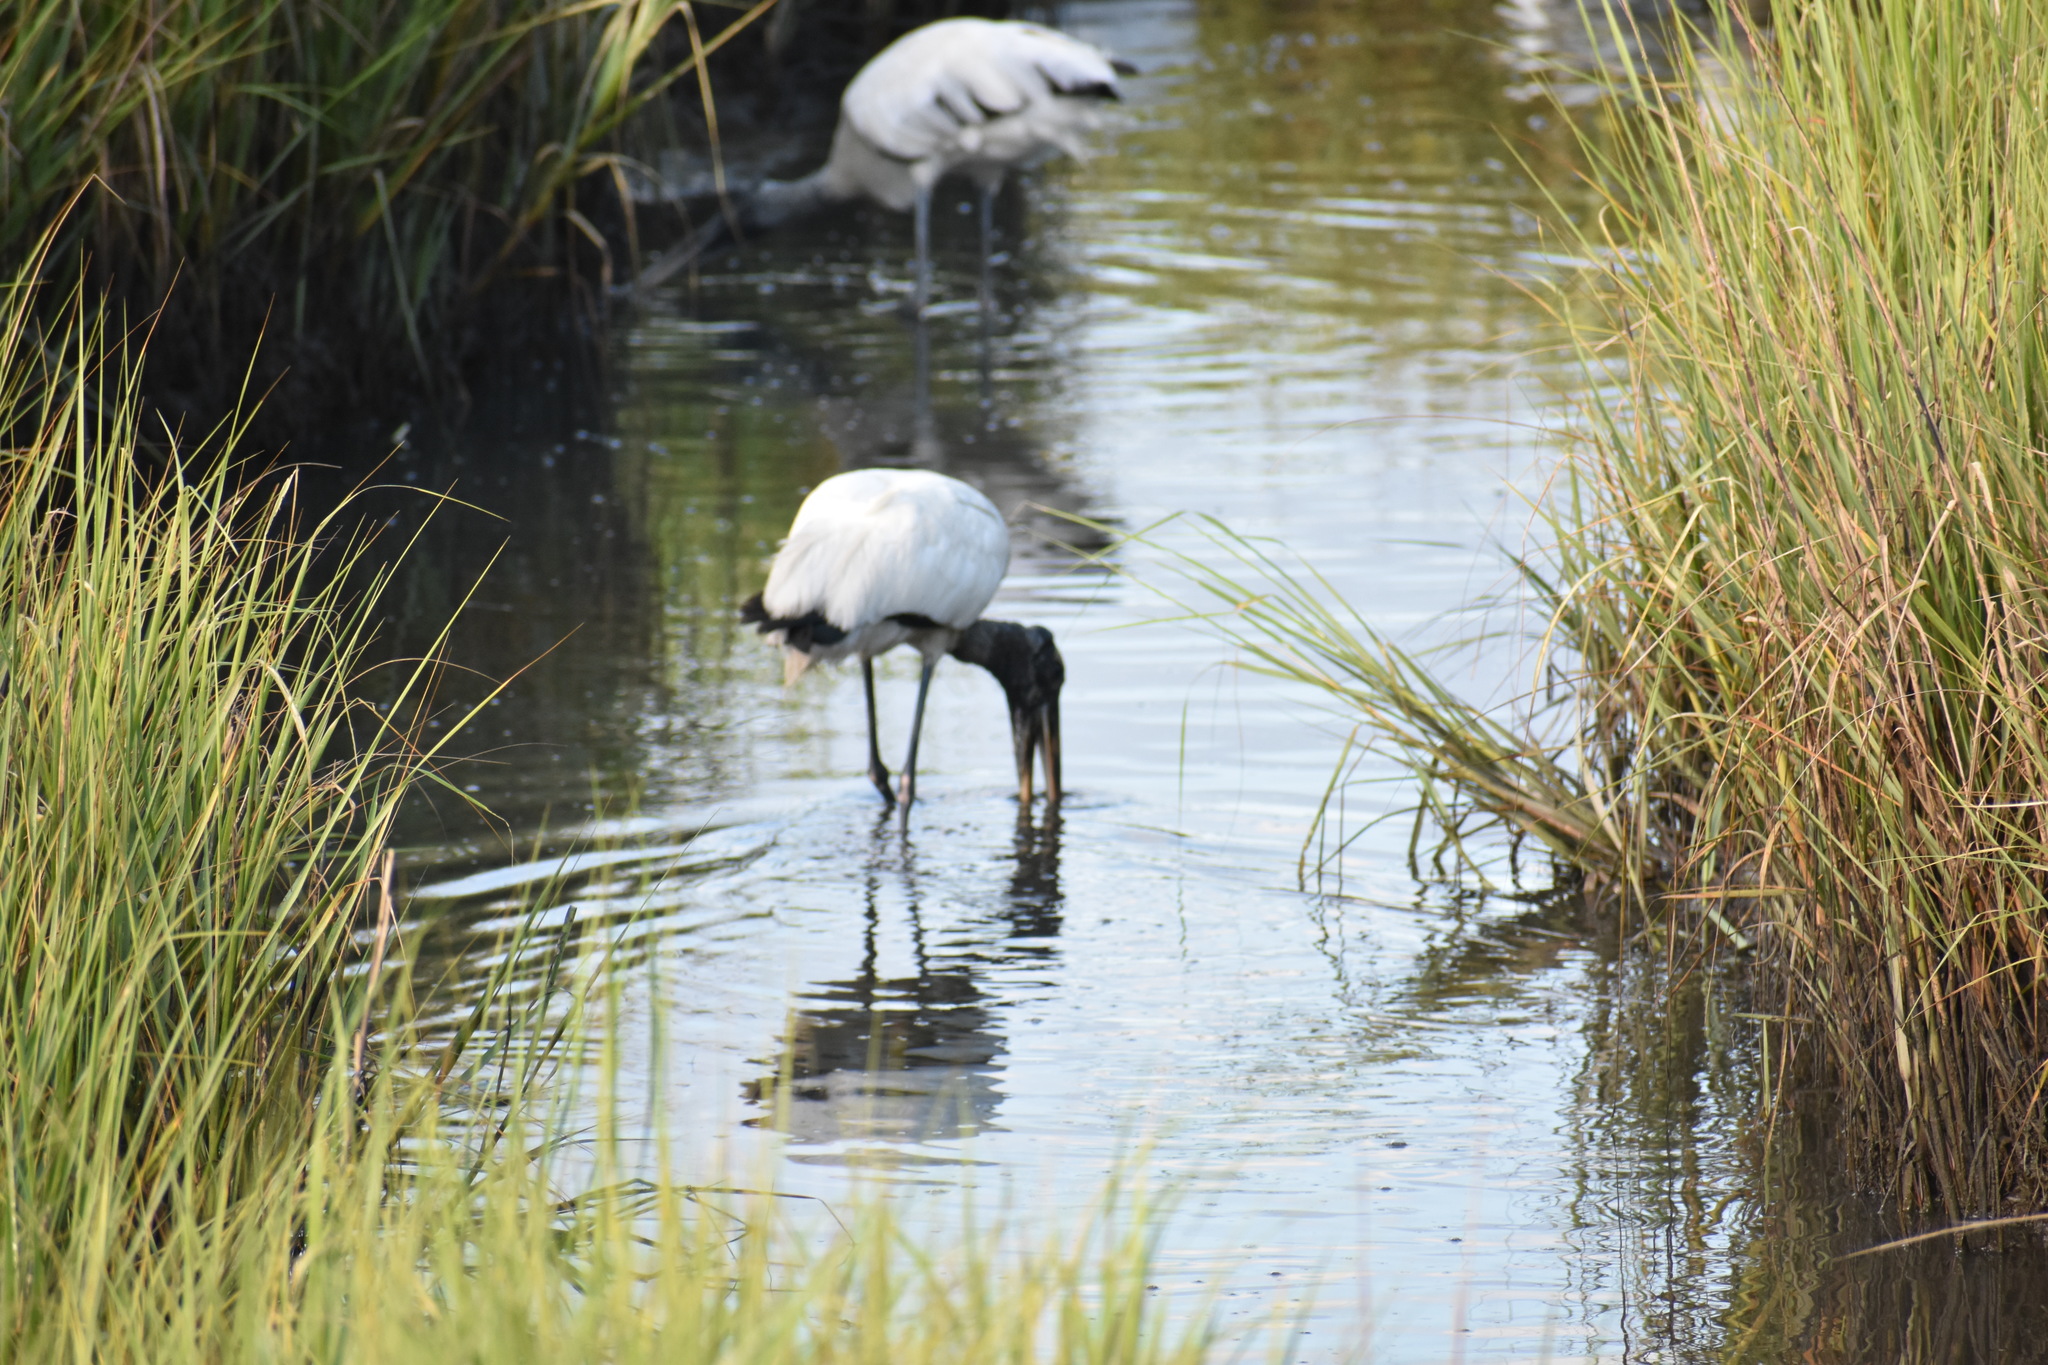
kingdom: Animalia
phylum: Chordata
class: Aves
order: Ciconiiformes
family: Ciconiidae
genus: Mycteria
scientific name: Mycteria americana
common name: Wood stork
